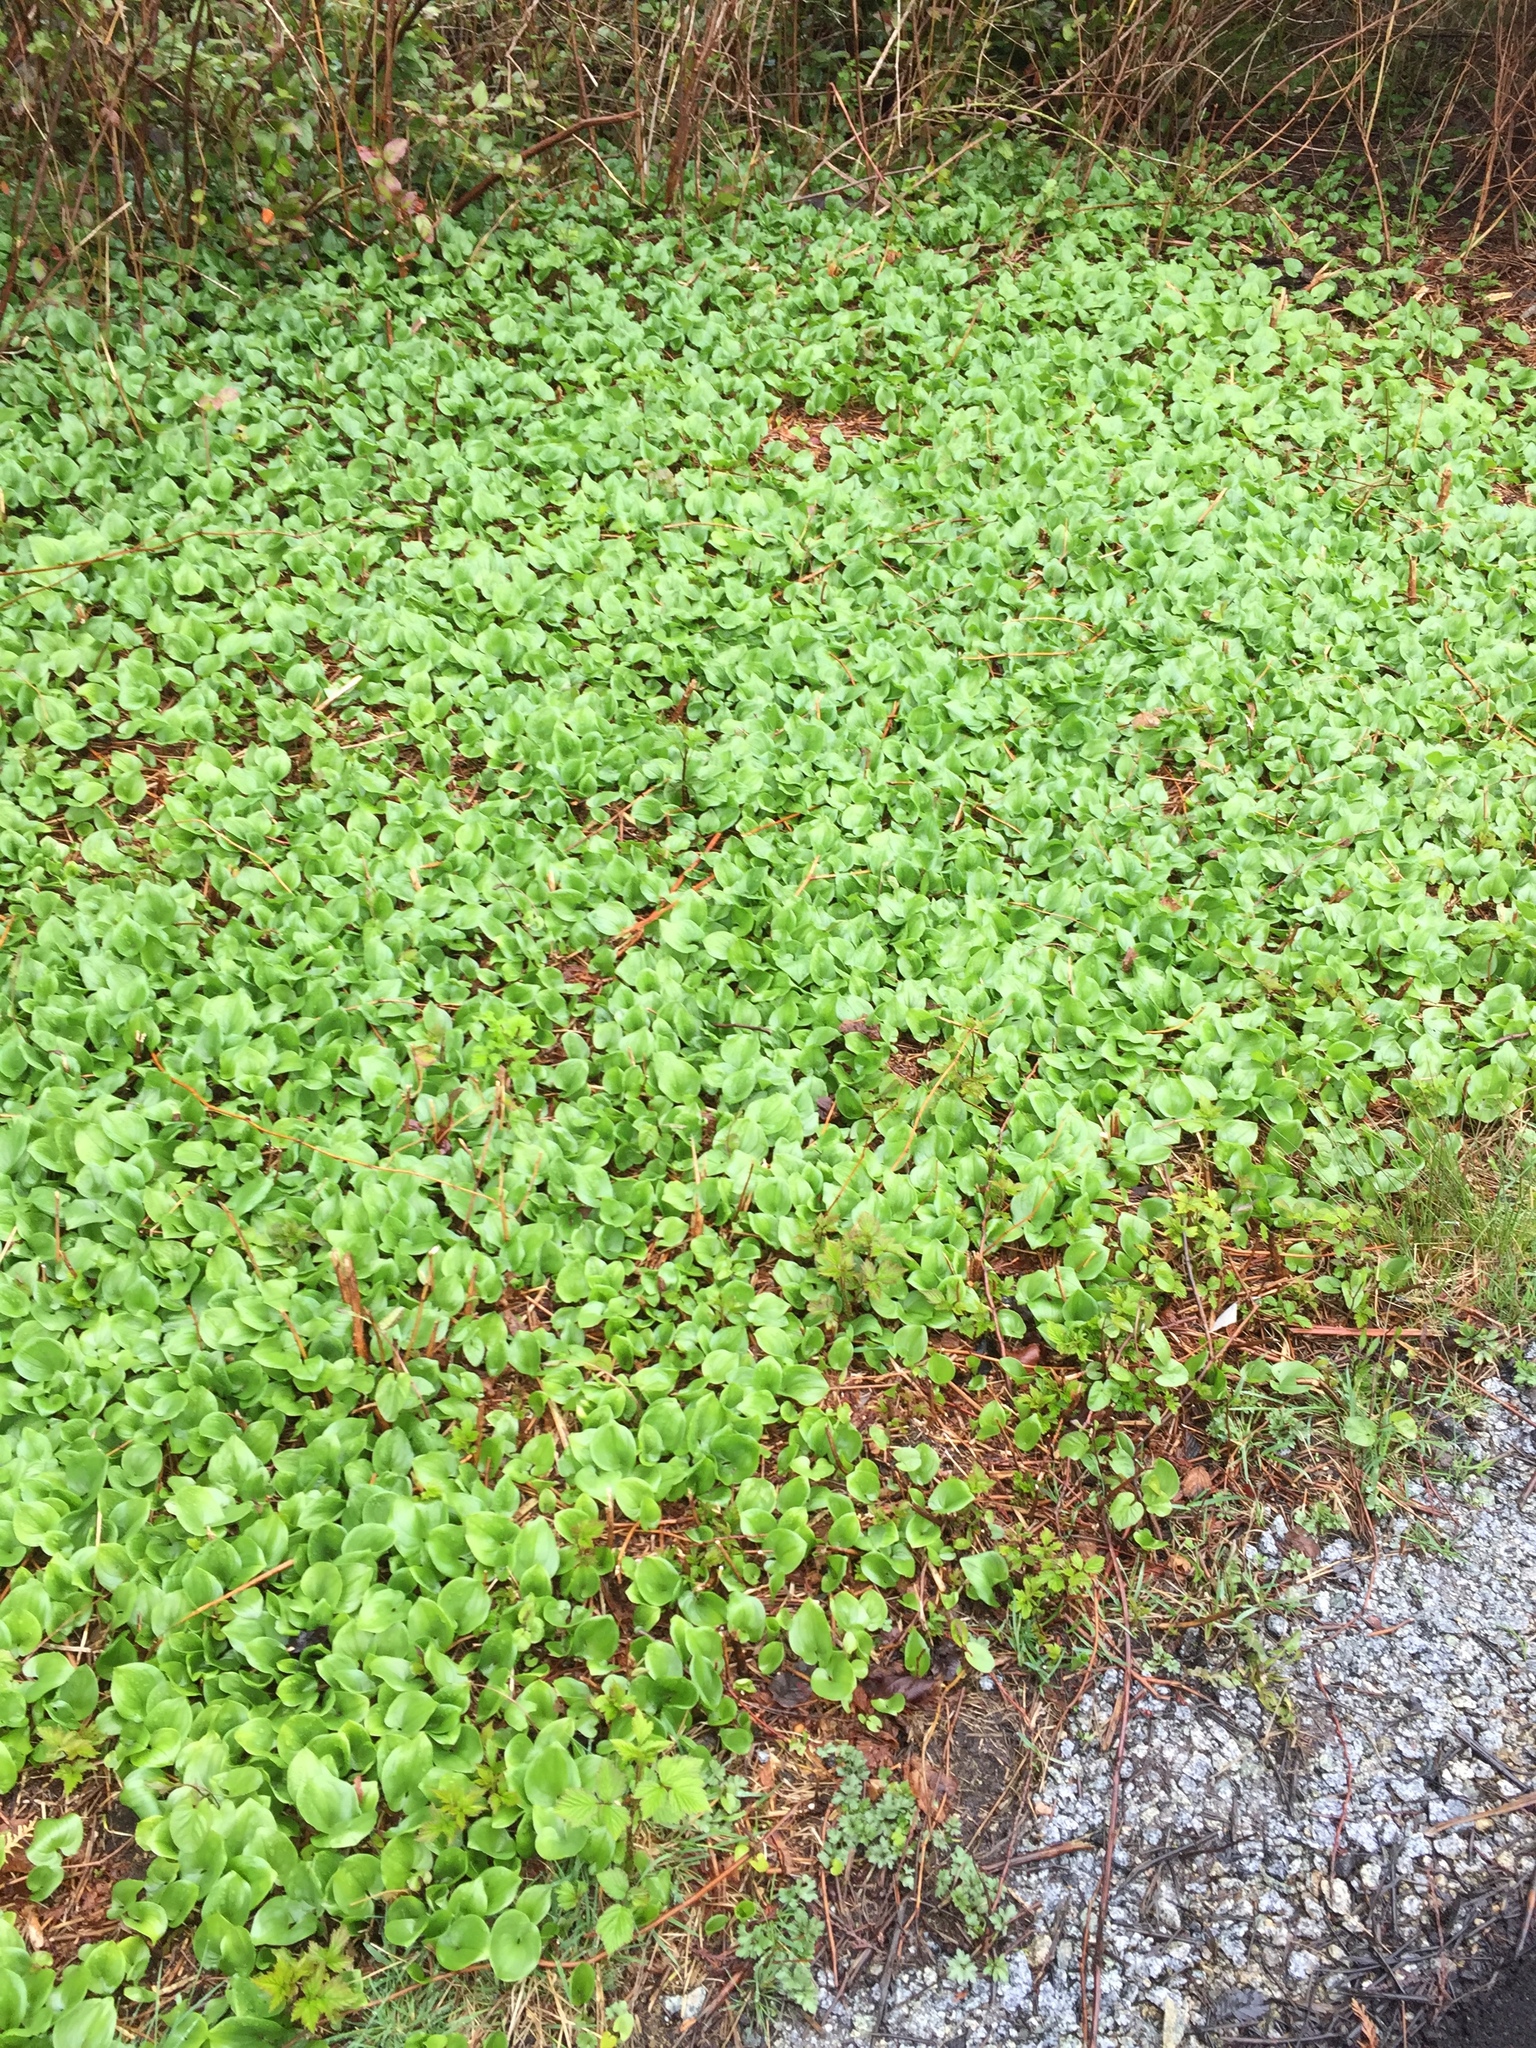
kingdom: Plantae
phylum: Tracheophyta
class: Liliopsida
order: Asparagales
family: Asparagaceae
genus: Maianthemum
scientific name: Maianthemum dilatatum
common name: False lily-of-the-valley
